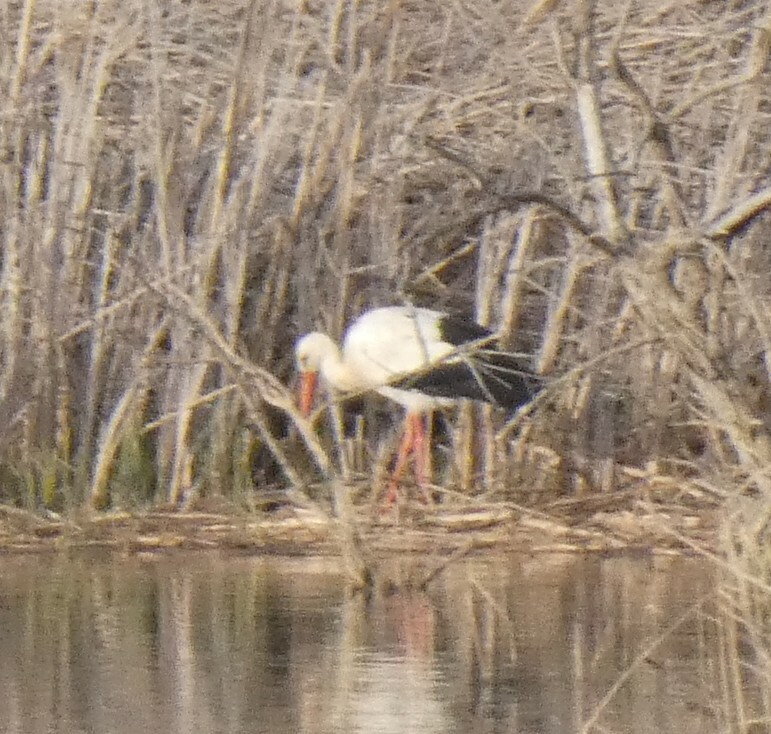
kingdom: Animalia
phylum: Chordata
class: Aves
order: Ciconiiformes
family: Ciconiidae
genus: Ciconia
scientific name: Ciconia ciconia
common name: White stork
